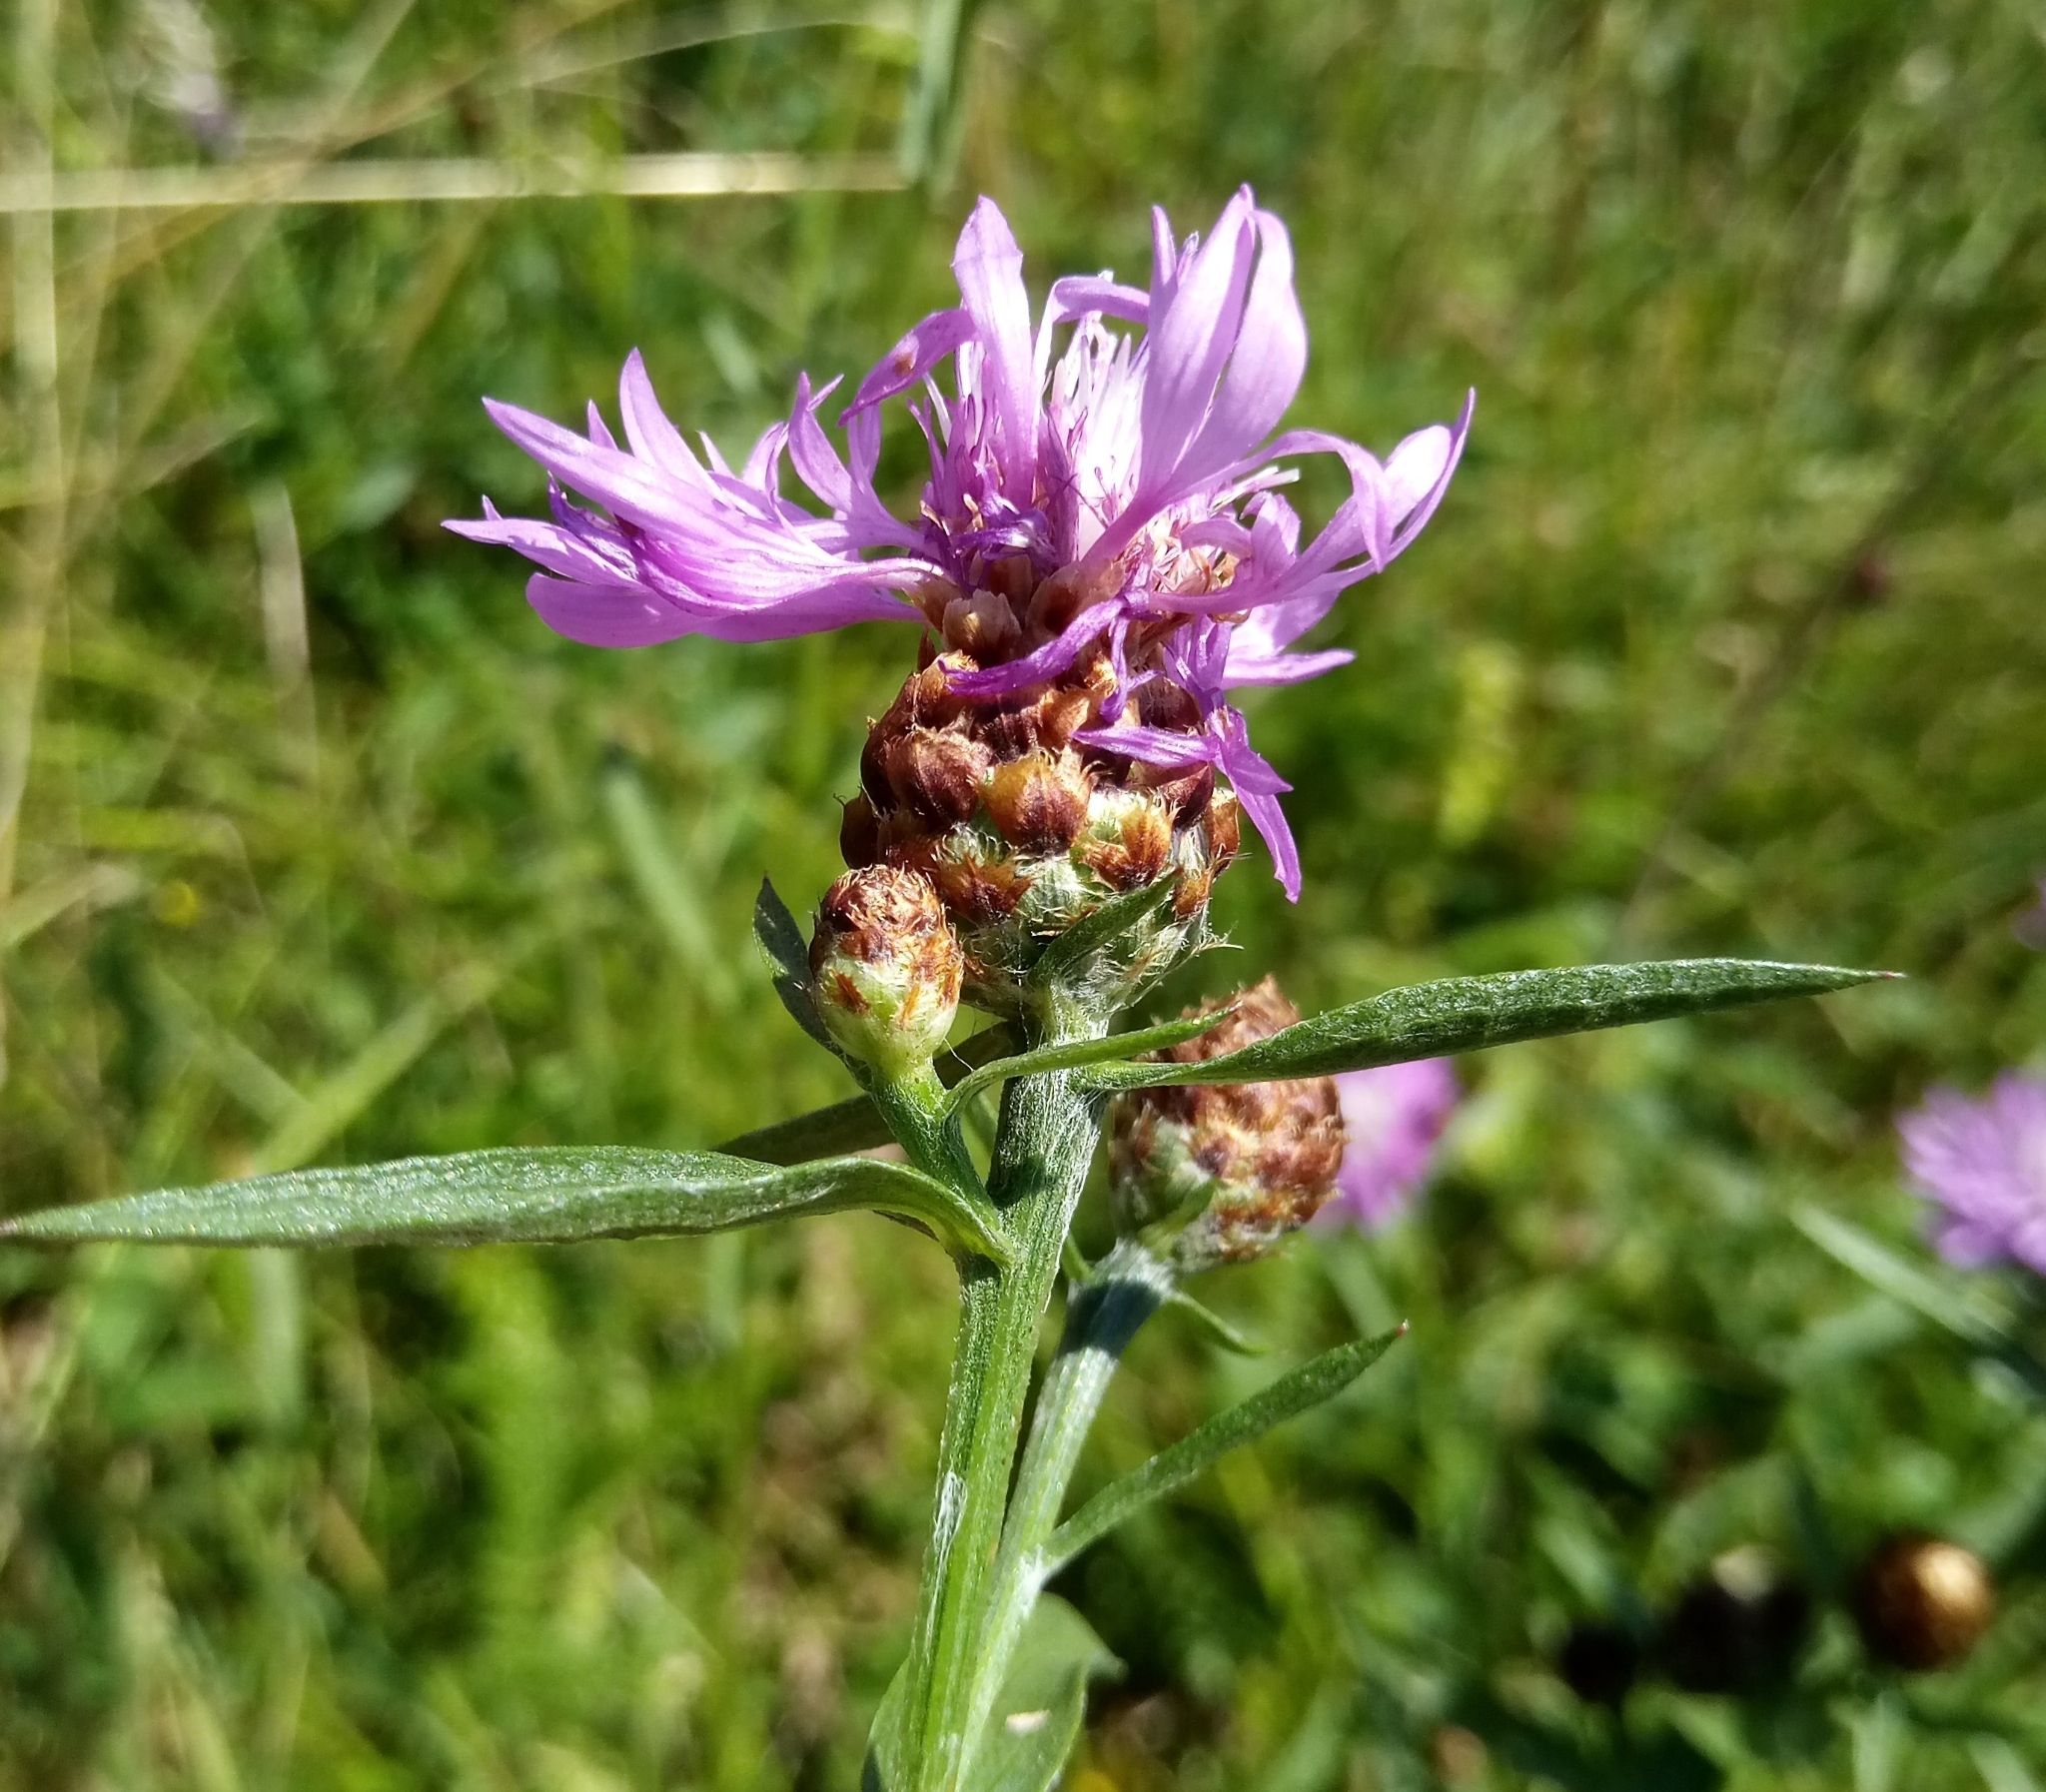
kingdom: Plantae
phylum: Tracheophyta
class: Magnoliopsida
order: Asterales
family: Asteraceae
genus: Centaurea
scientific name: Centaurea jacea
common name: Brown knapweed
